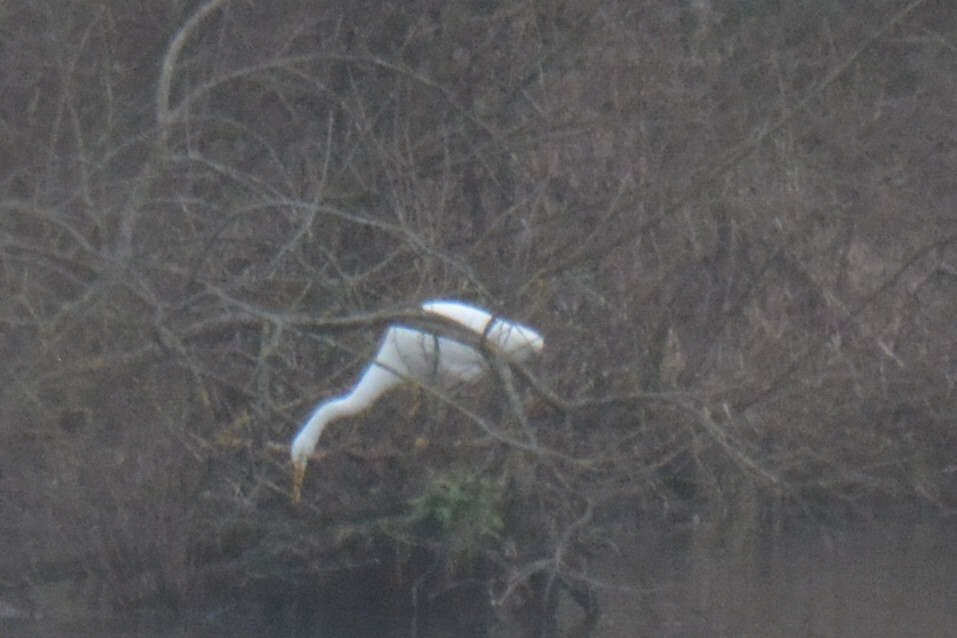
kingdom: Animalia
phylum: Chordata
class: Aves
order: Pelecaniformes
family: Ardeidae
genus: Ardea
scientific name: Ardea alba
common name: Great egret
